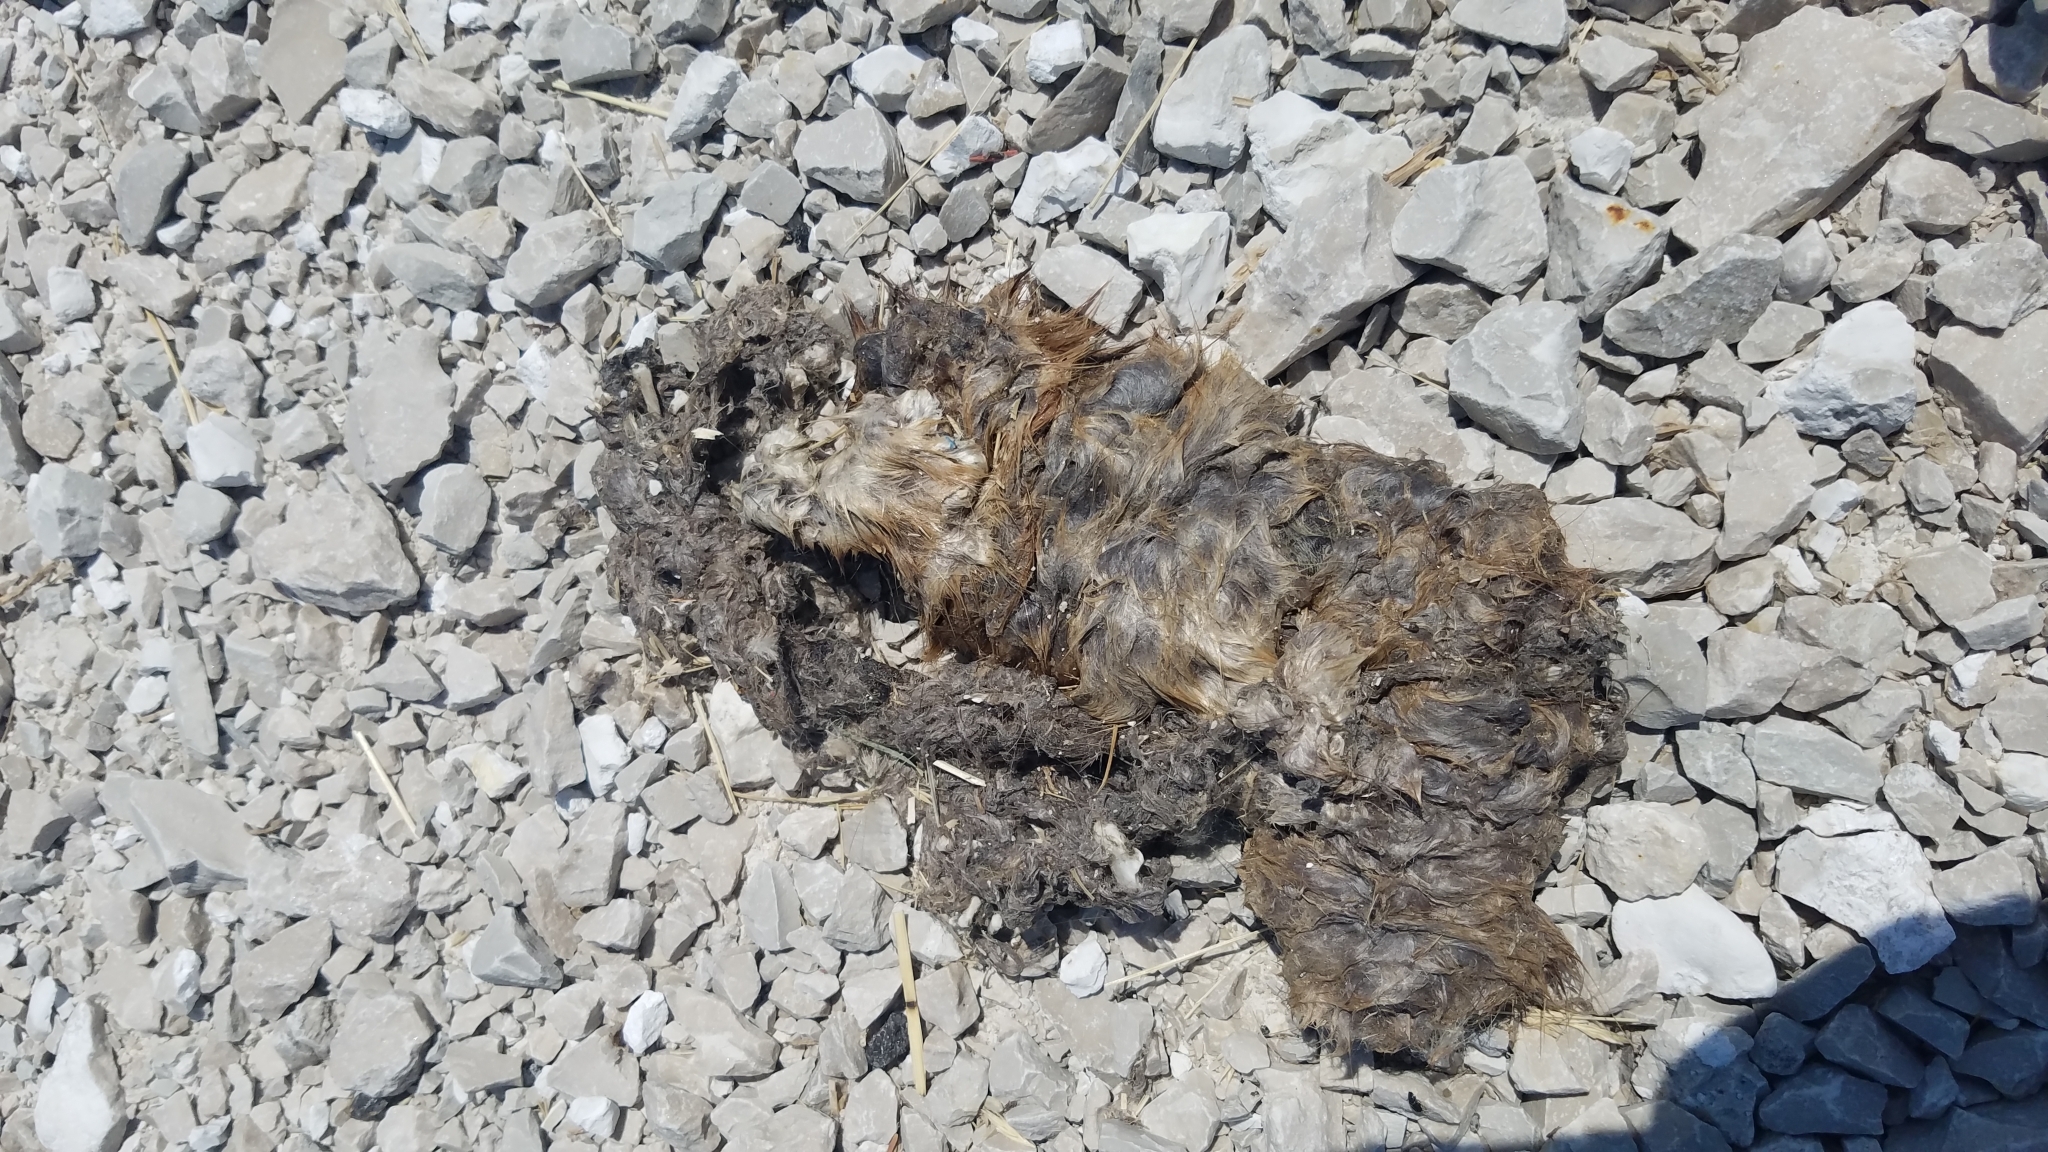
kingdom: Animalia
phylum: Chordata
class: Mammalia
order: Rodentia
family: Cricetidae
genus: Ondatra
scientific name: Ondatra zibethicus
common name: Muskrat
